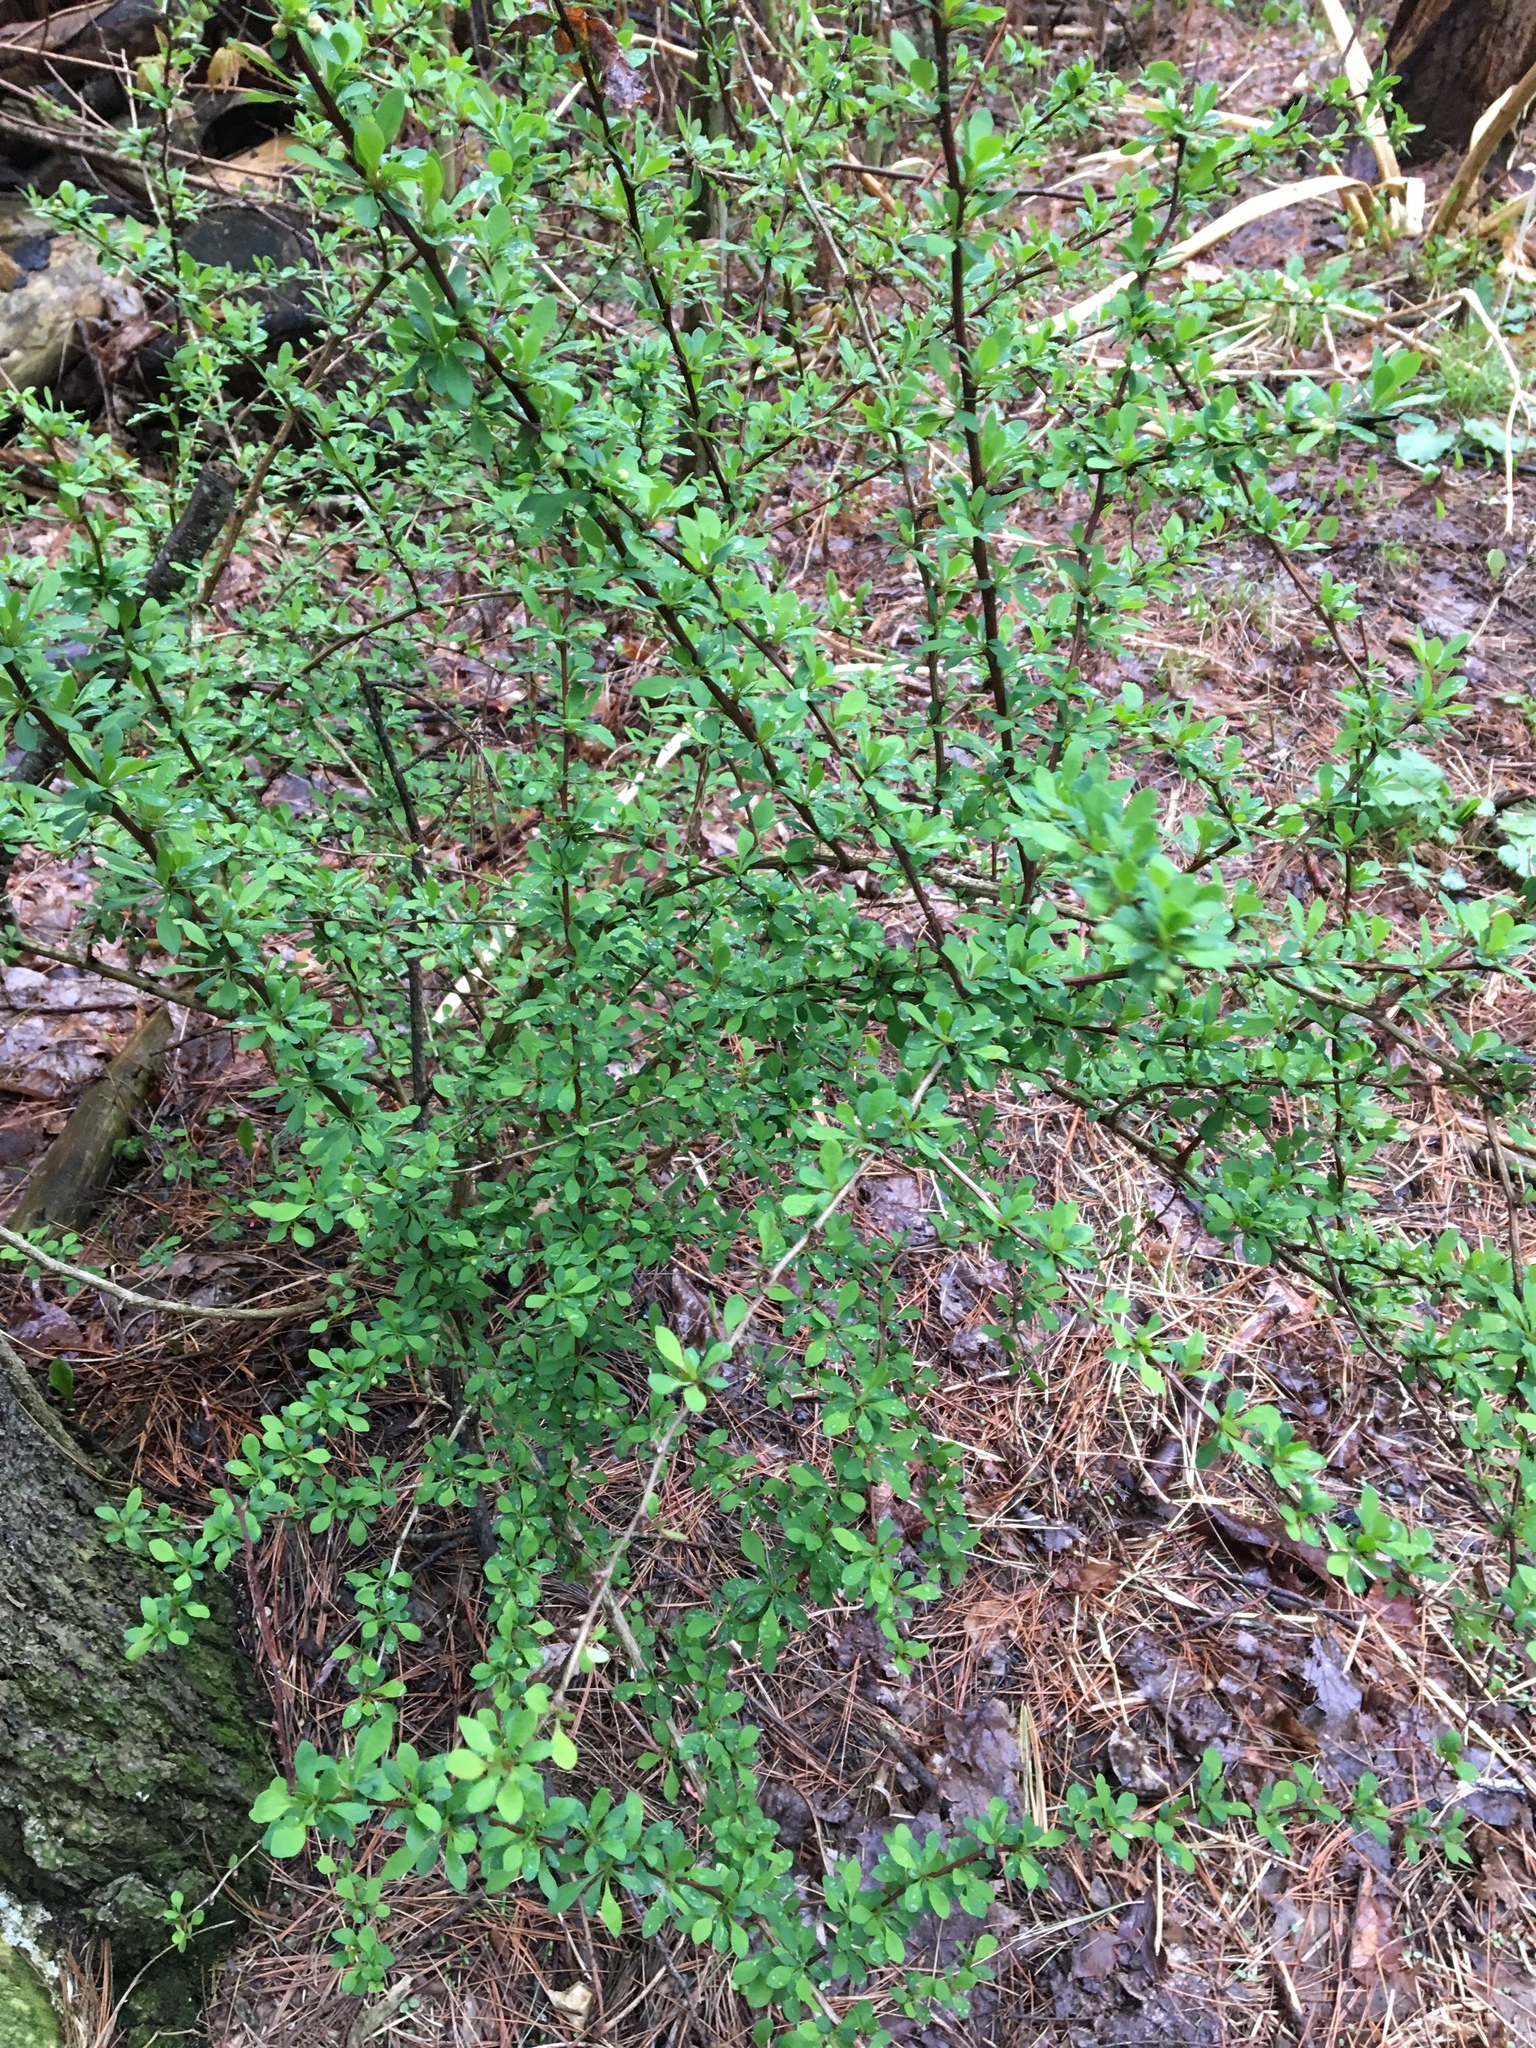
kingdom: Plantae
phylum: Tracheophyta
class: Magnoliopsida
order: Ranunculales
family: Berberidaceae
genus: Berberis
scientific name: Berberis thunbergii
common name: Japanese barberry
